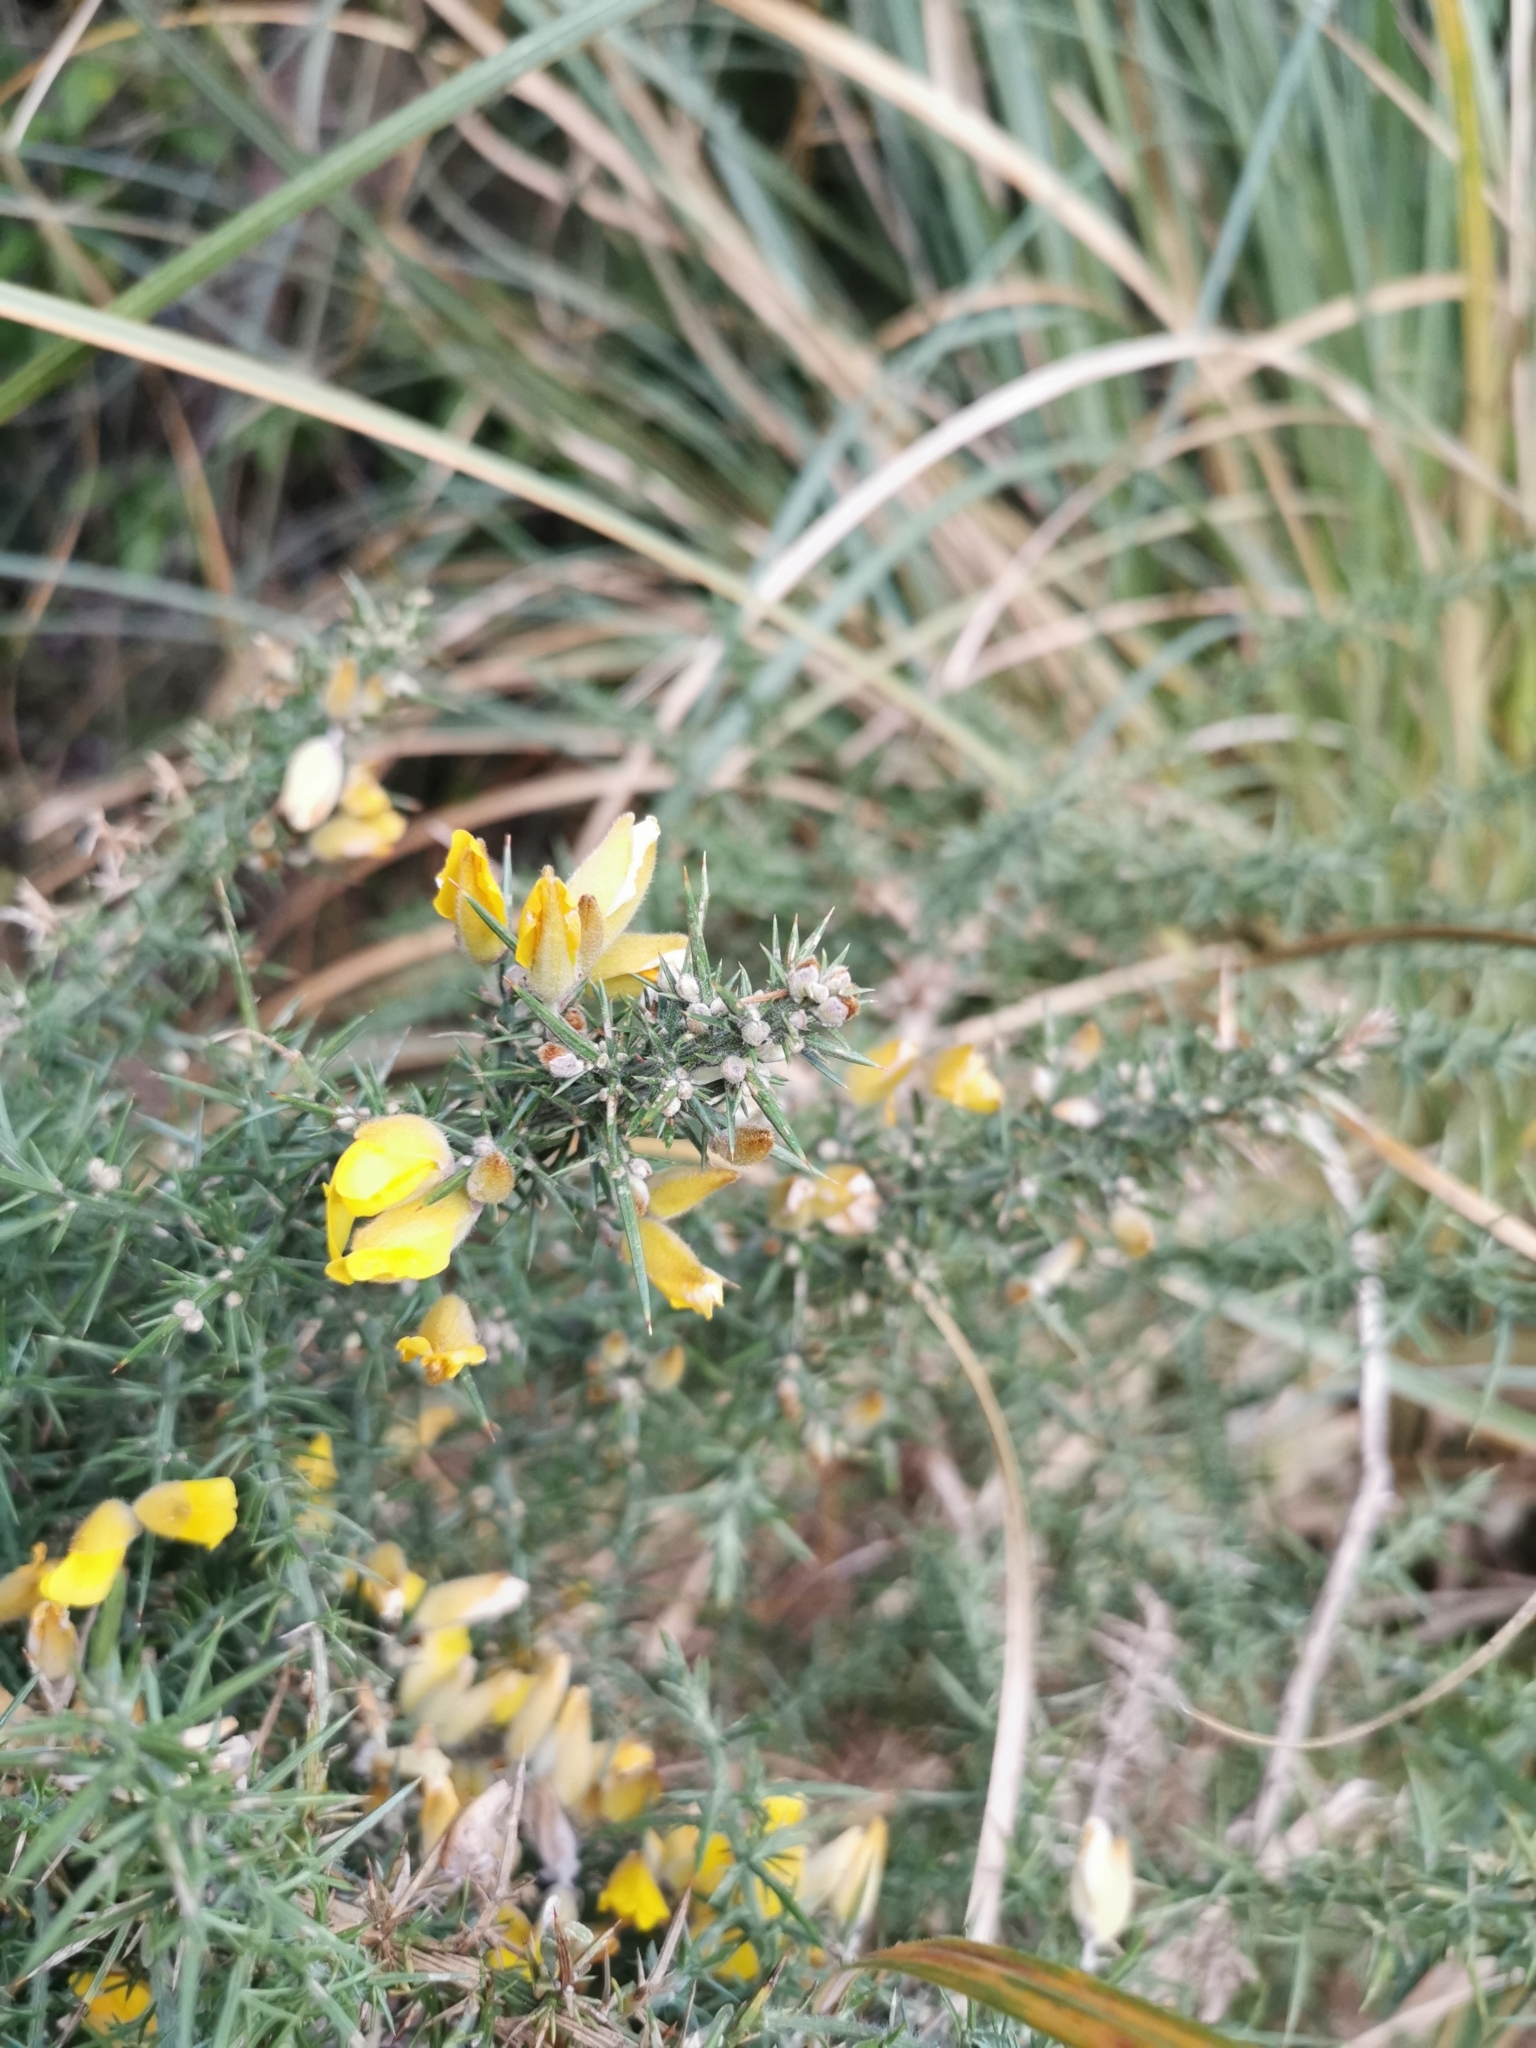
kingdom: Plantae
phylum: Tracheophyta
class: Magnoliopsida
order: Fabales
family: Fabaceae
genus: Ulex
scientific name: Ulex europaeus
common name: Common gorse
